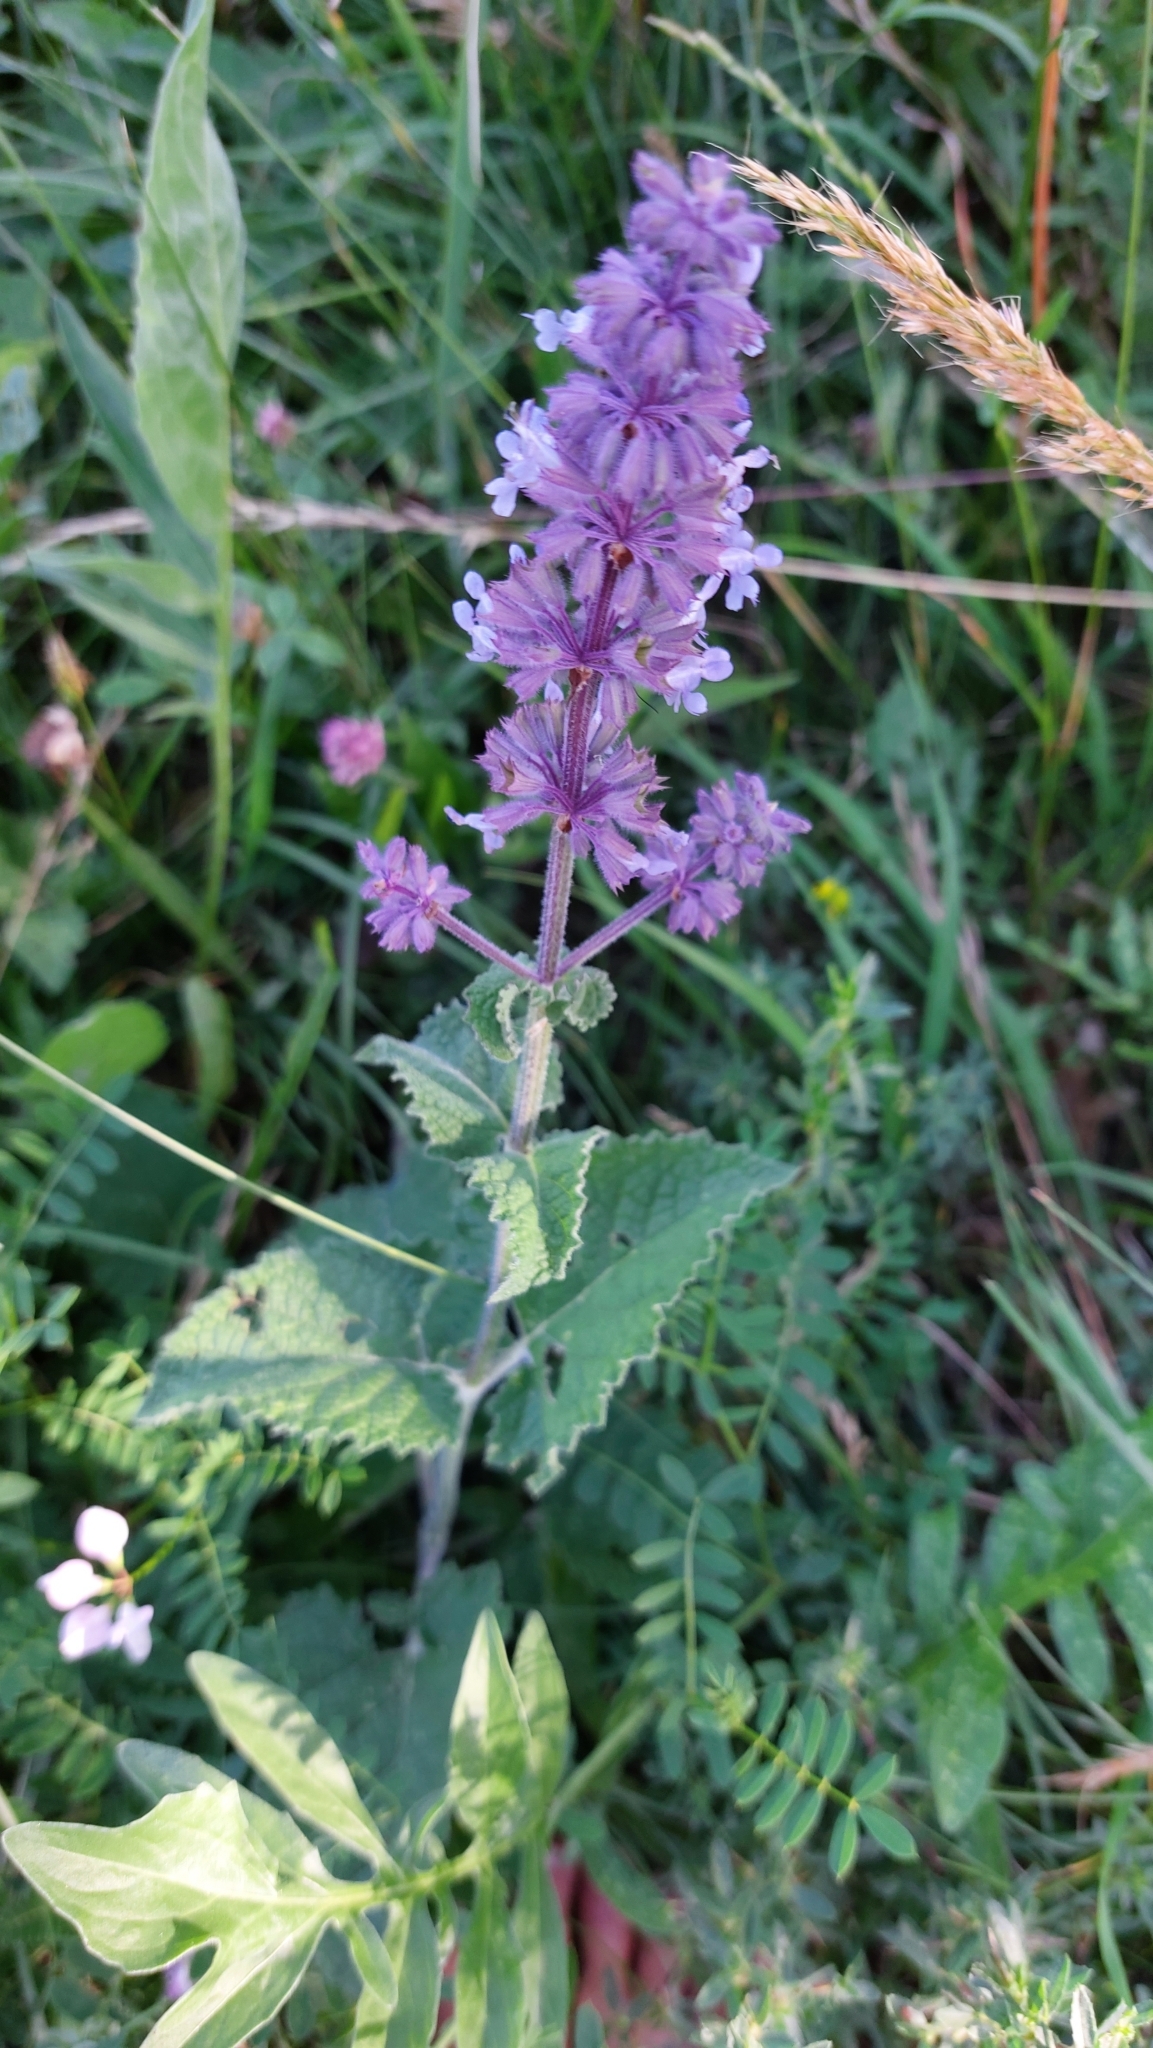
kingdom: Plantae
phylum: Tracheophyta
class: Magnoliopsida
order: Lamiales
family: Lamiaceae
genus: Salvia
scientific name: Salvia verticillata
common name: Whorled clary
